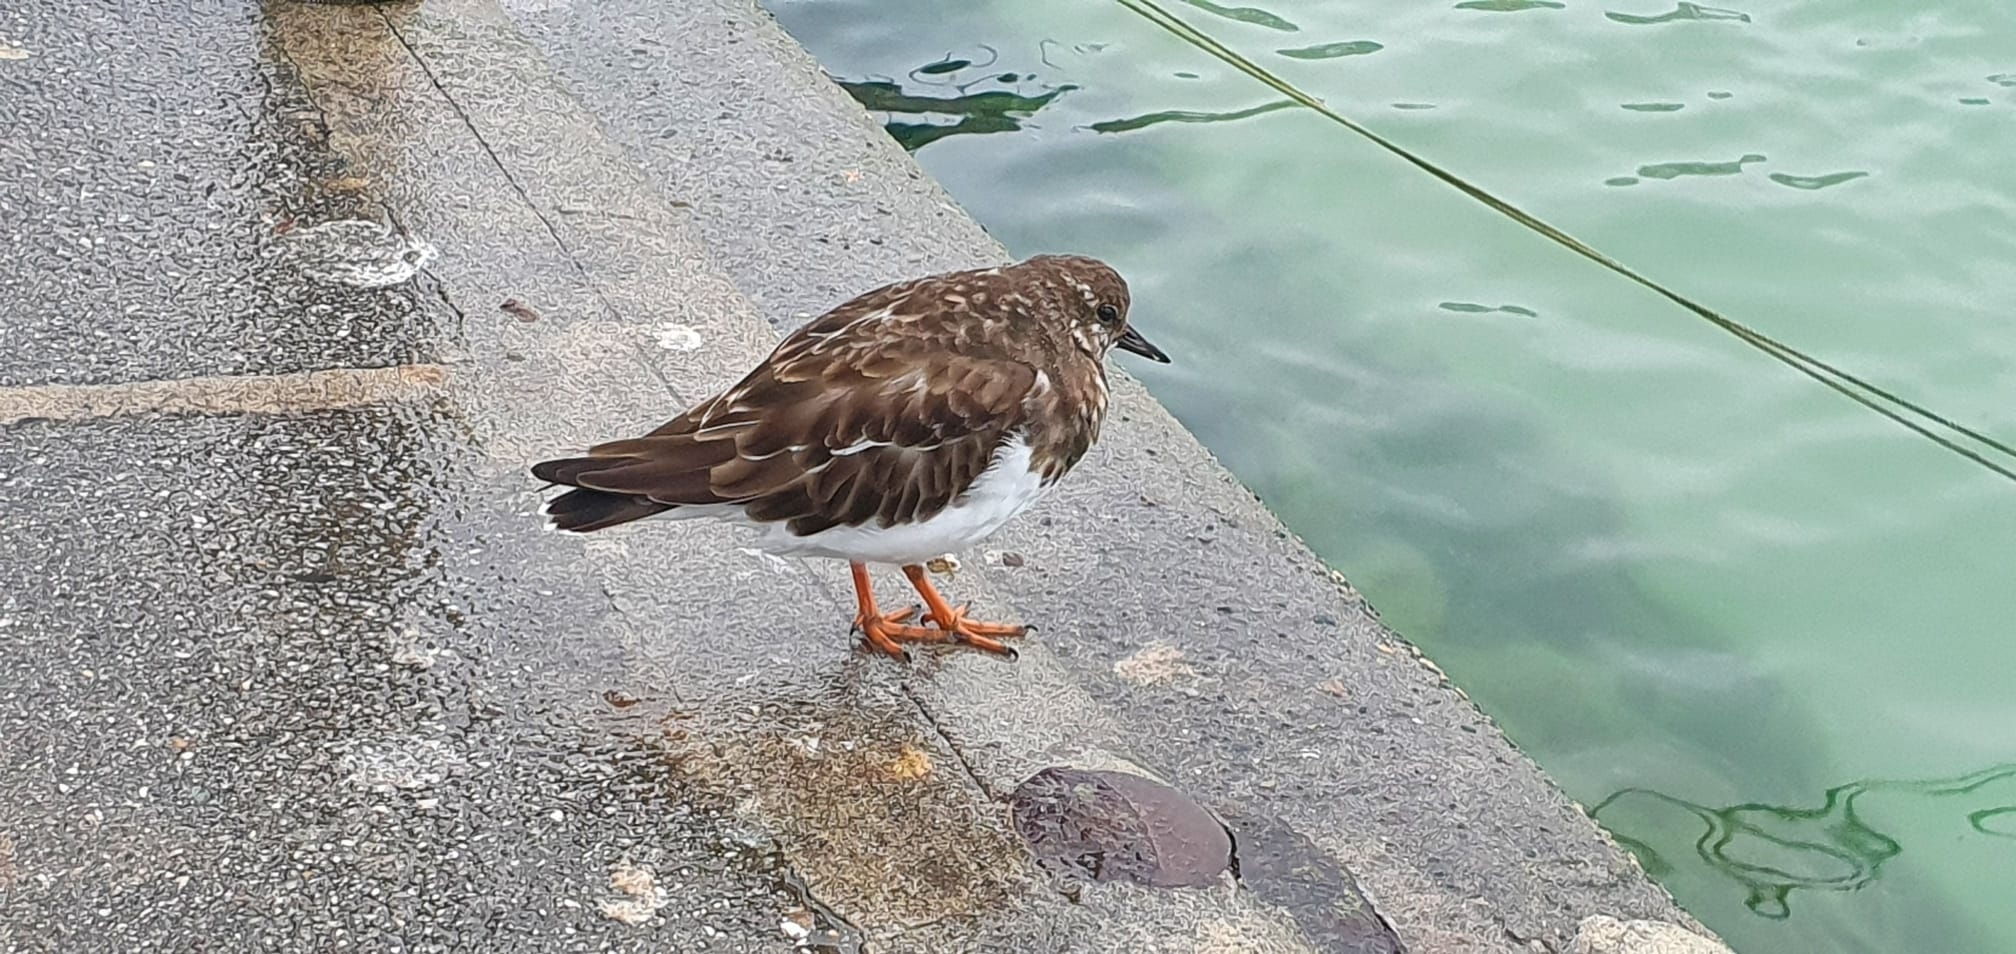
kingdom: Animalia
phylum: Chordata
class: Aves
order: Charadriiformes
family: Scolopacidae
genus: Arenaria
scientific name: Arenaria interpres
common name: Ruddy turnstone
